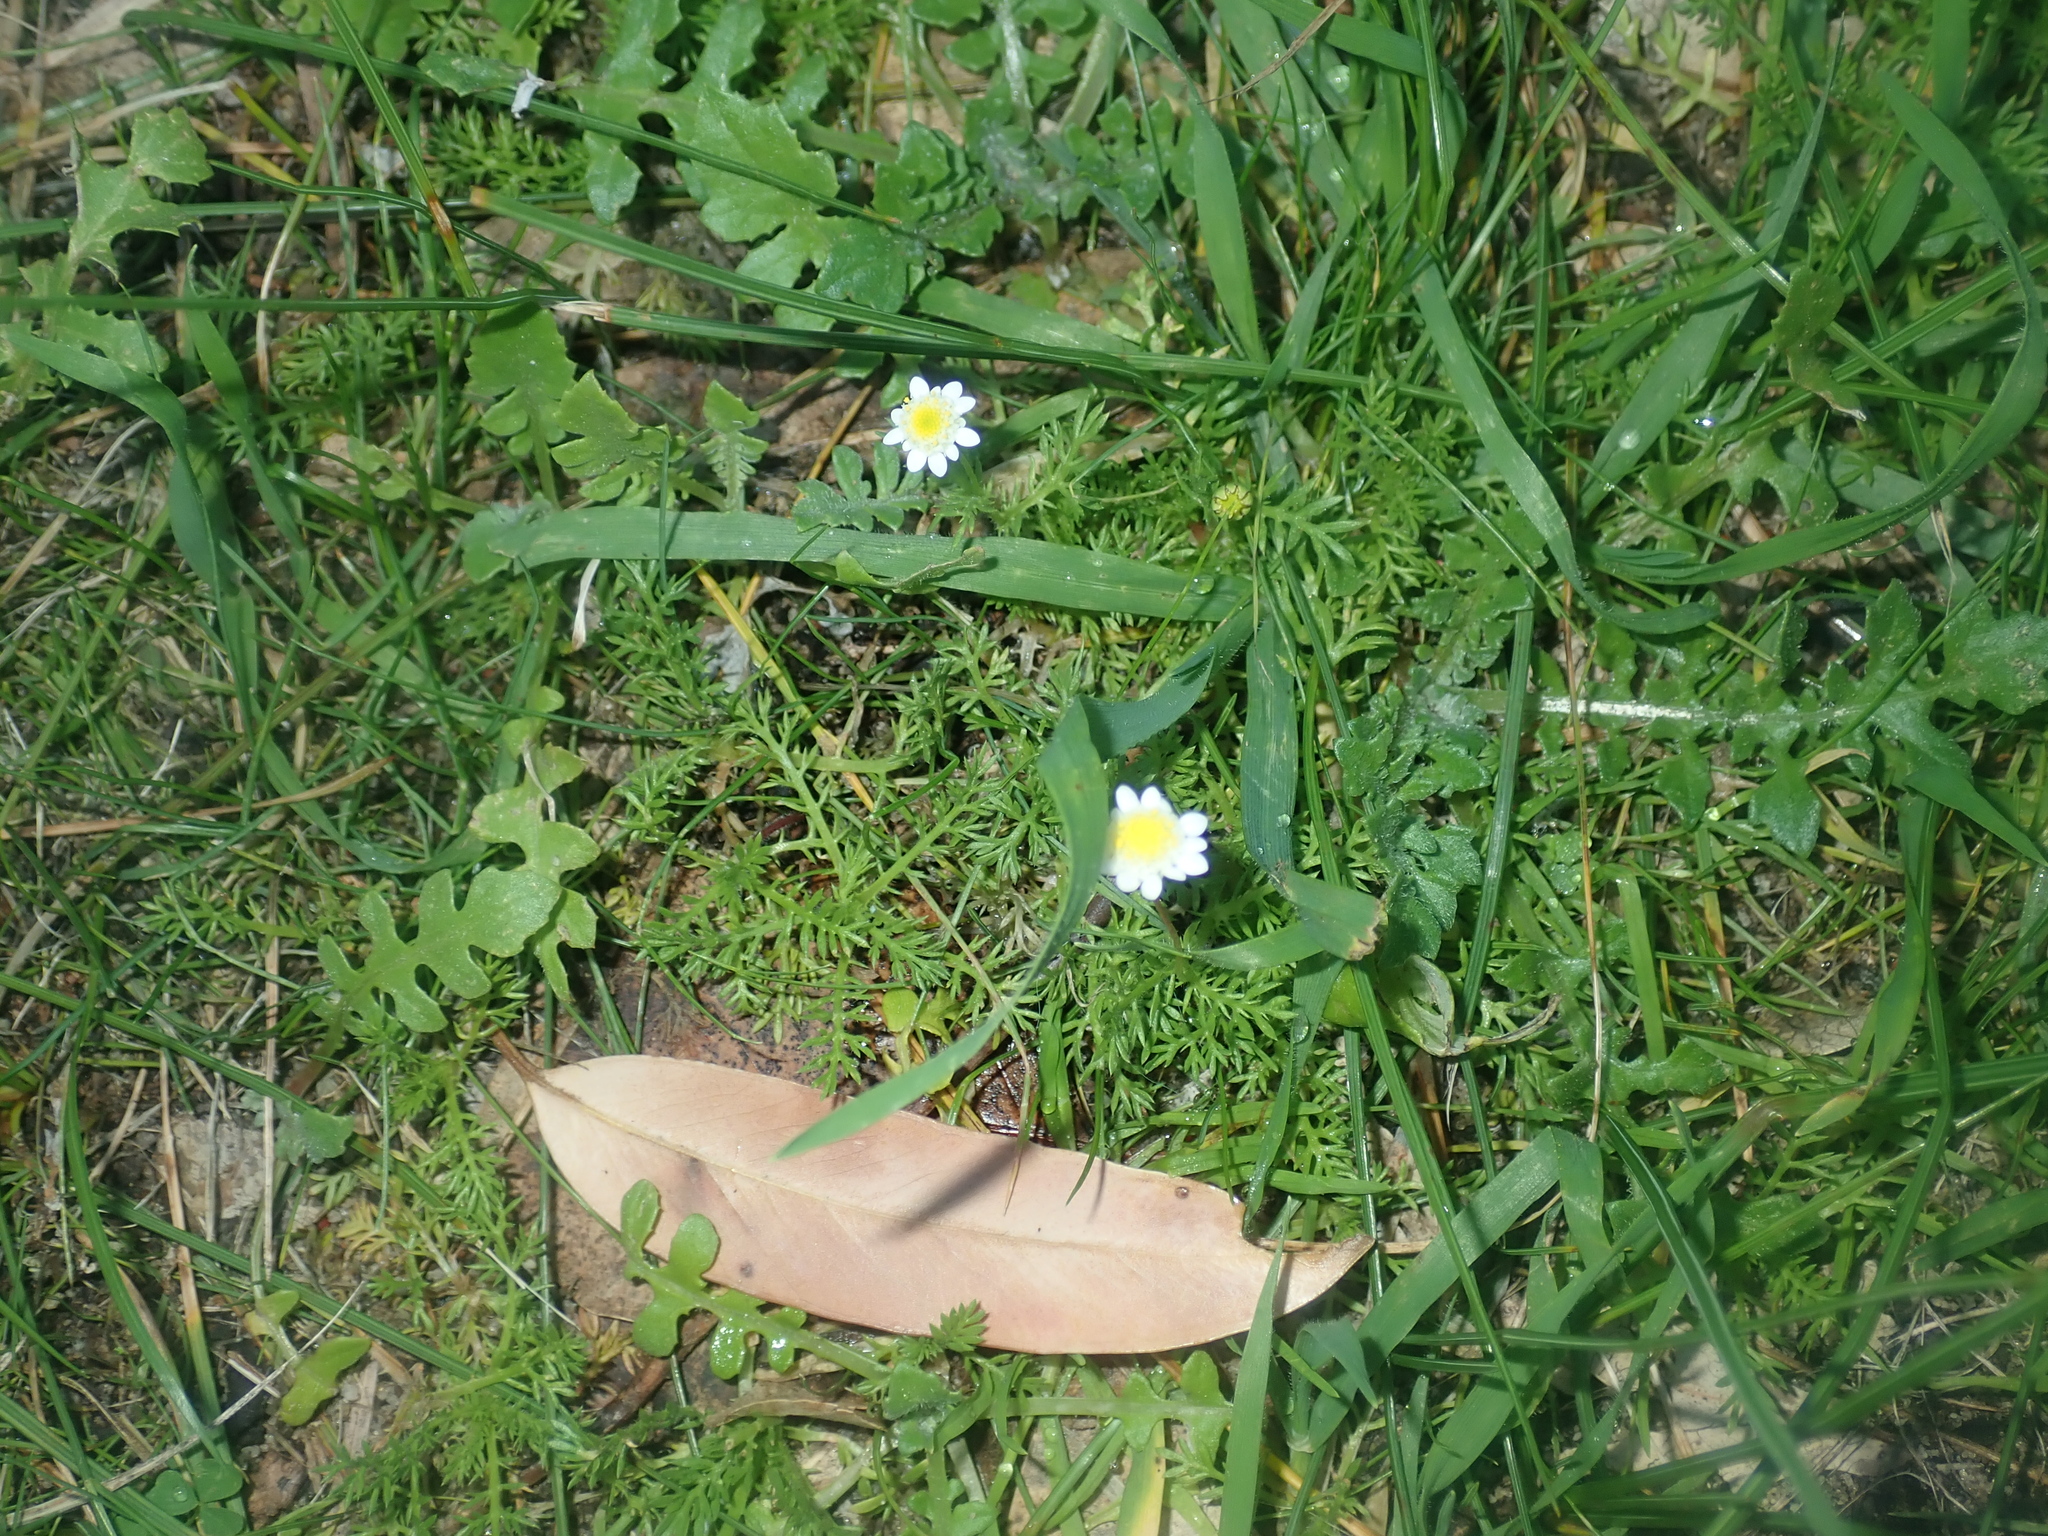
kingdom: Plantae
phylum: Tracheophyta
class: Magnoliopsida
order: Asterales
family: Asteraceae
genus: Cotula
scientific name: Cotula turbinata
